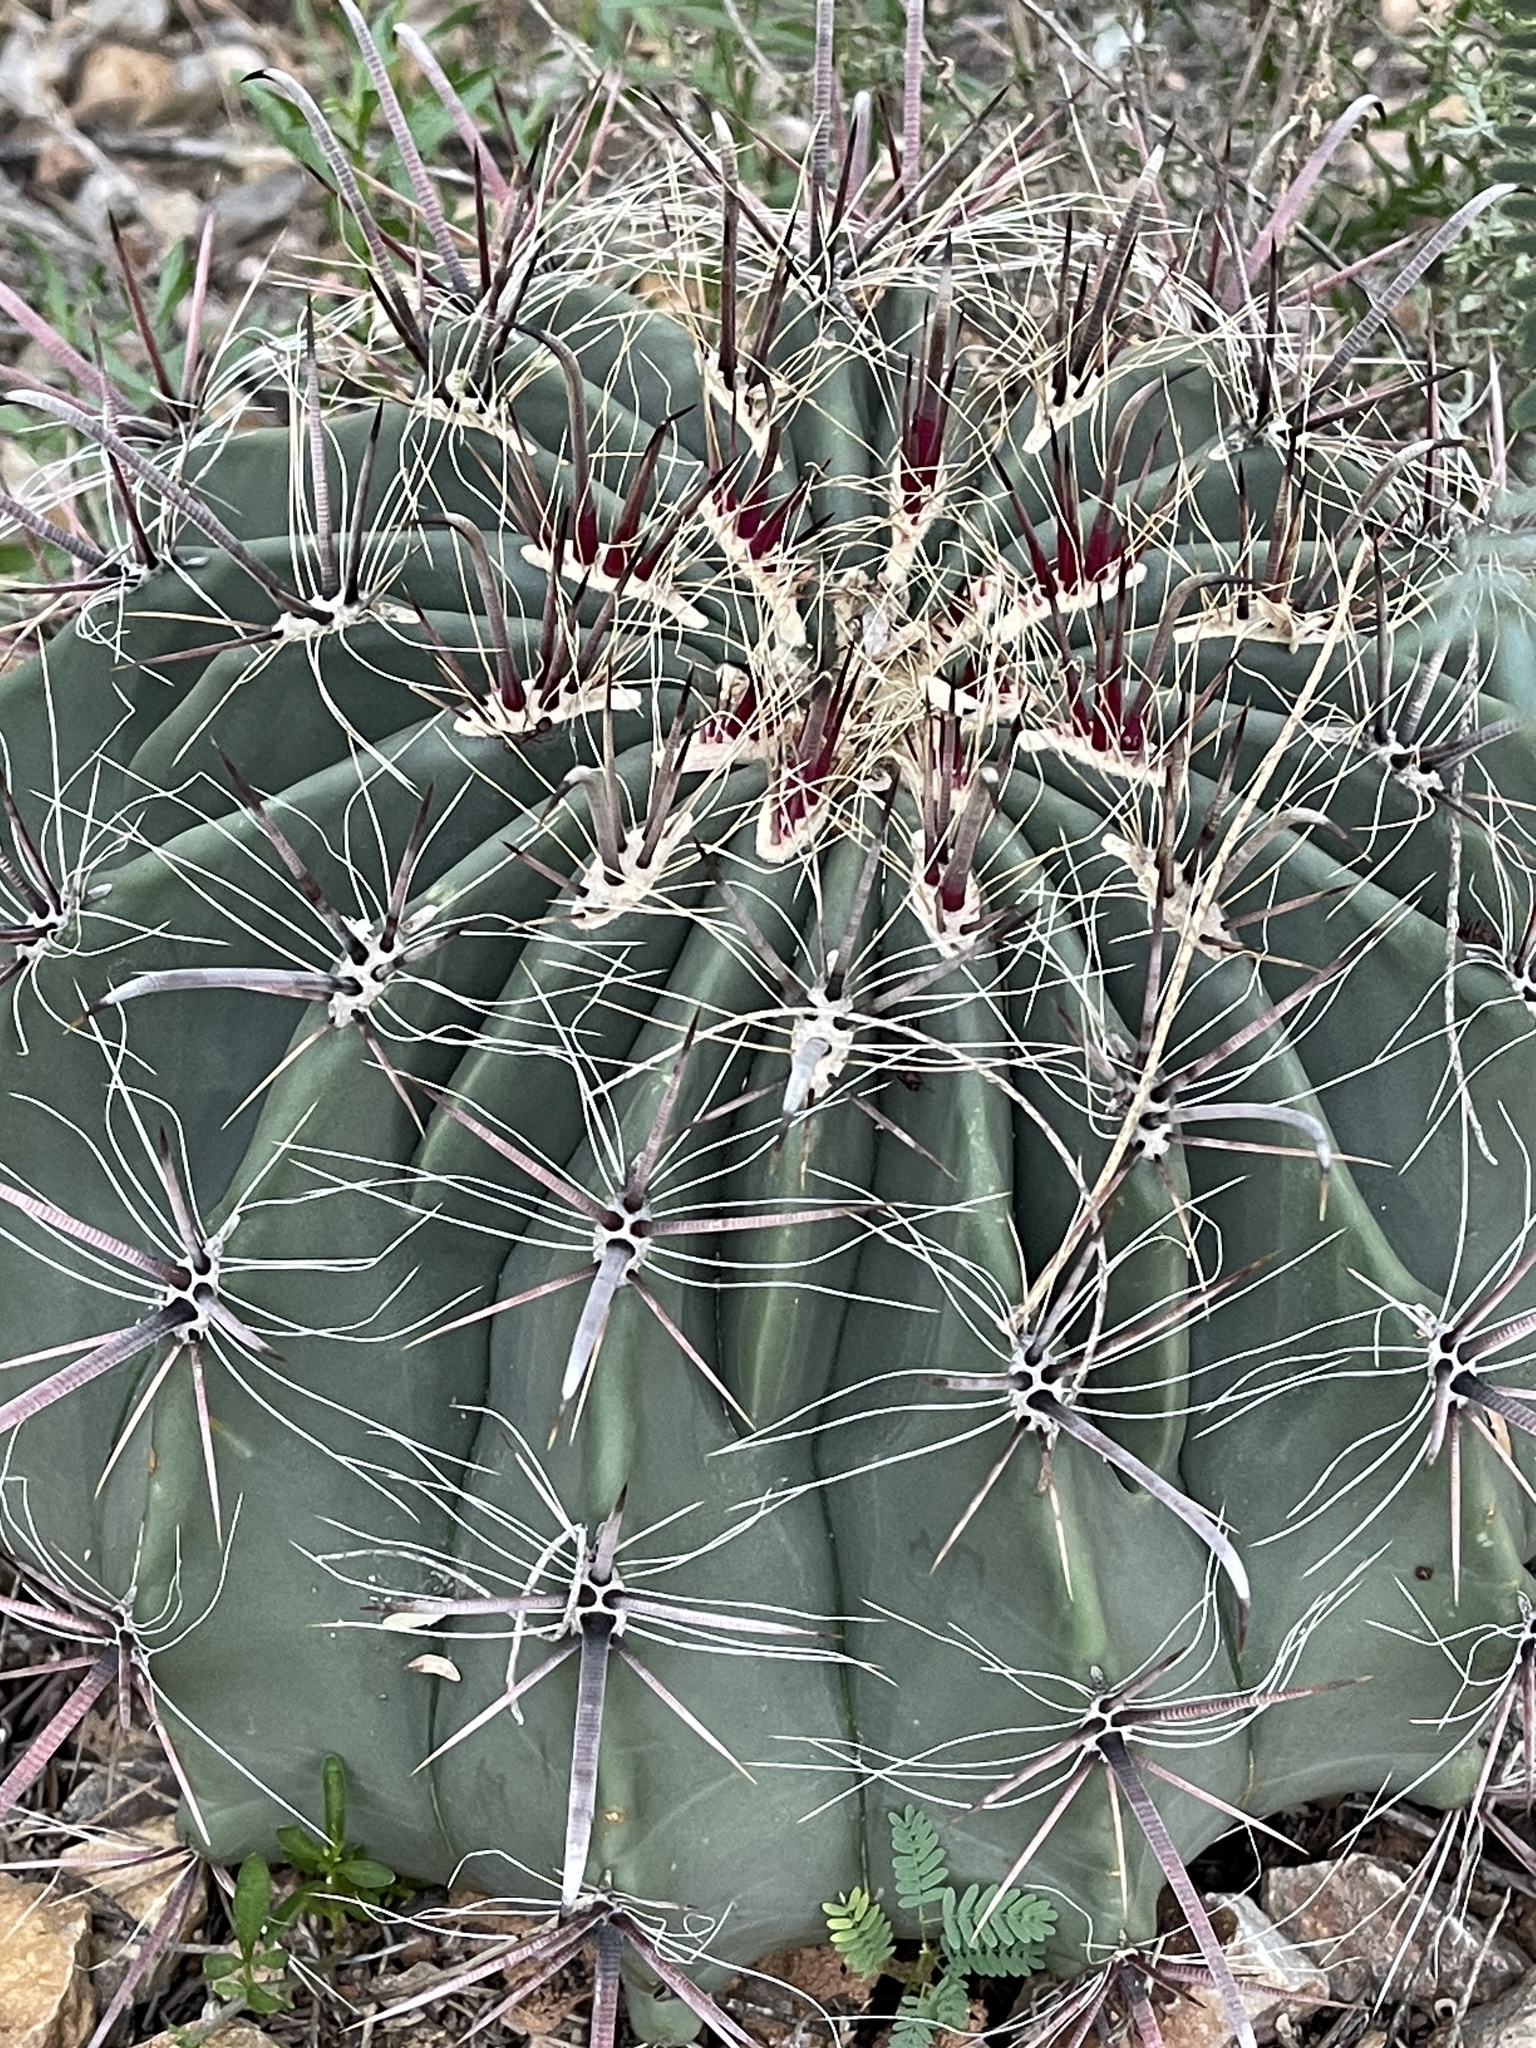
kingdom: Plantae
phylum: Tracheophyta
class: Magnoliopsida
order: Caryophyllales
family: Cactaceae
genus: Ferocactus
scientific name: Ferocactus wislizeni
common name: Candy barrel cactus
